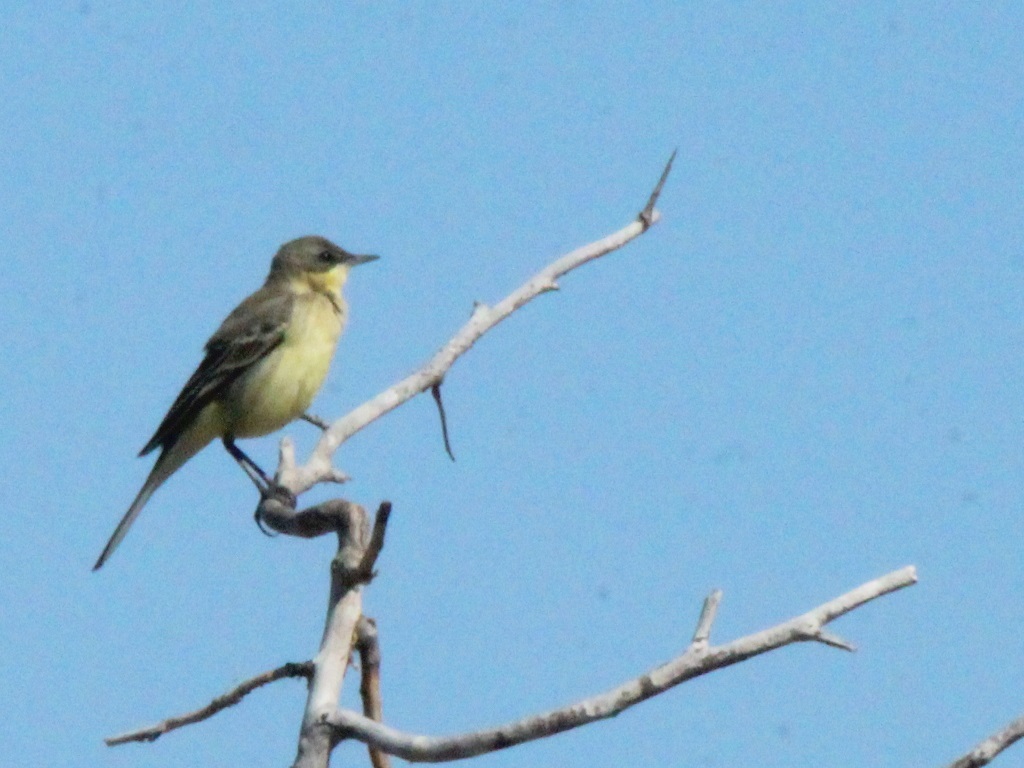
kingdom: Animalia
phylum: Chordata
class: Aves
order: Passeriformes
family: Motacillidae
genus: Motacilla
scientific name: Motacilla flava
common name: Western yellow wagtail
